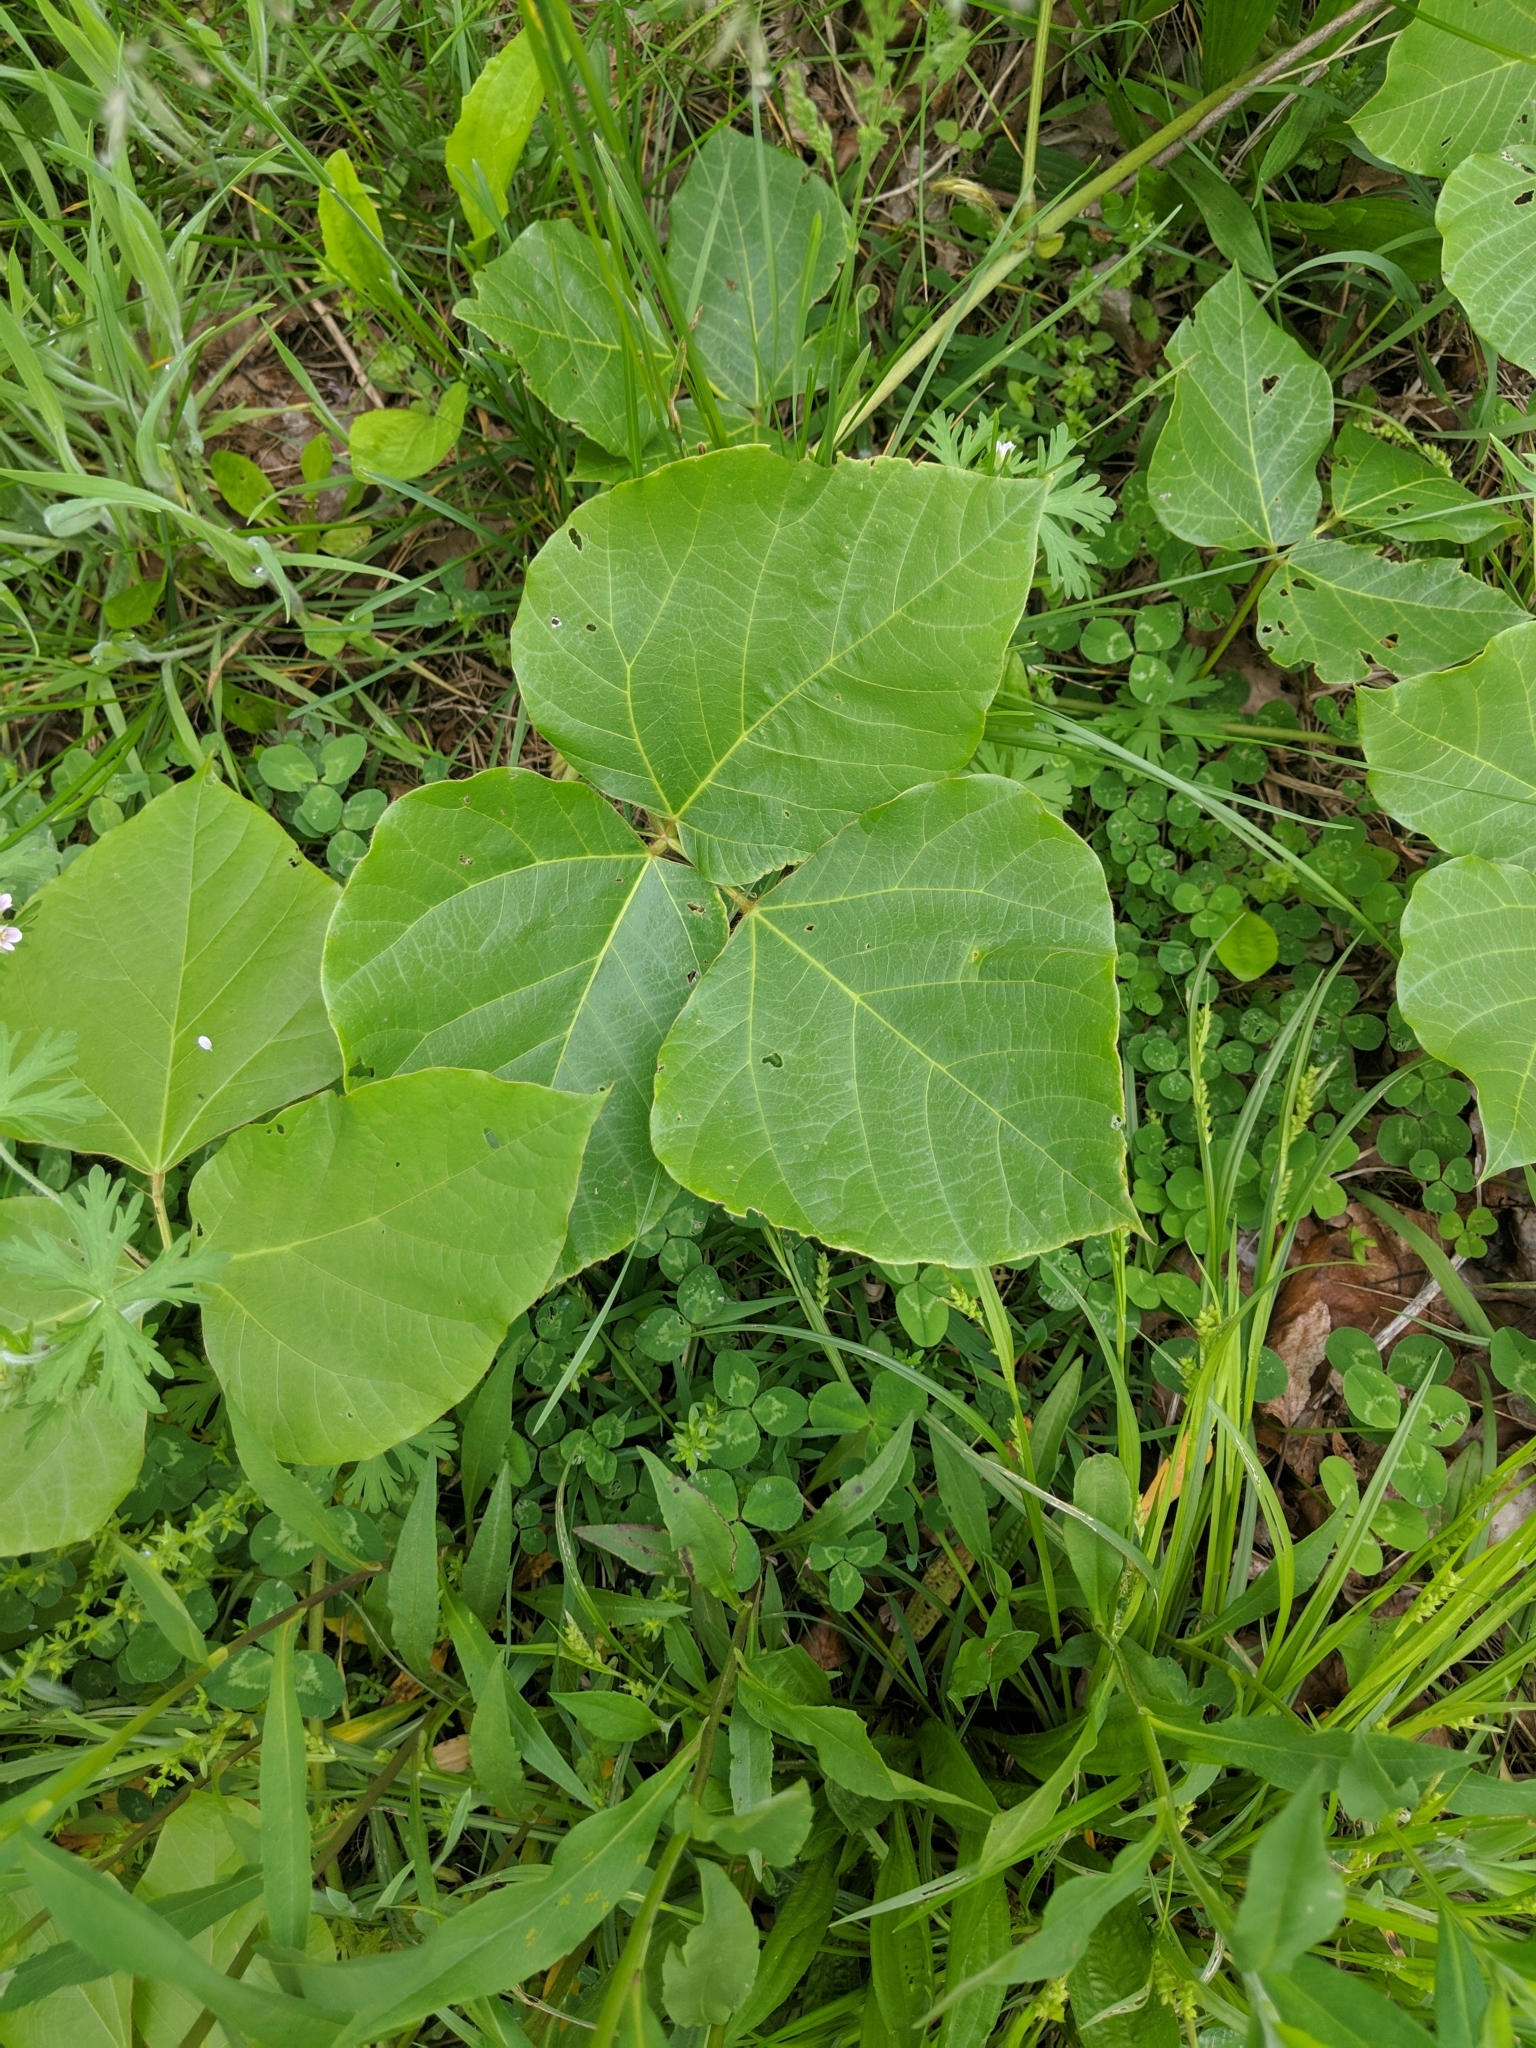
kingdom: Plantae
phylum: Tracheophyta
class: Magnoliopsida
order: Fabales
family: Fabaceae
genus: Pueraria
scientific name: Pueraria montana
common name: Kudzu
